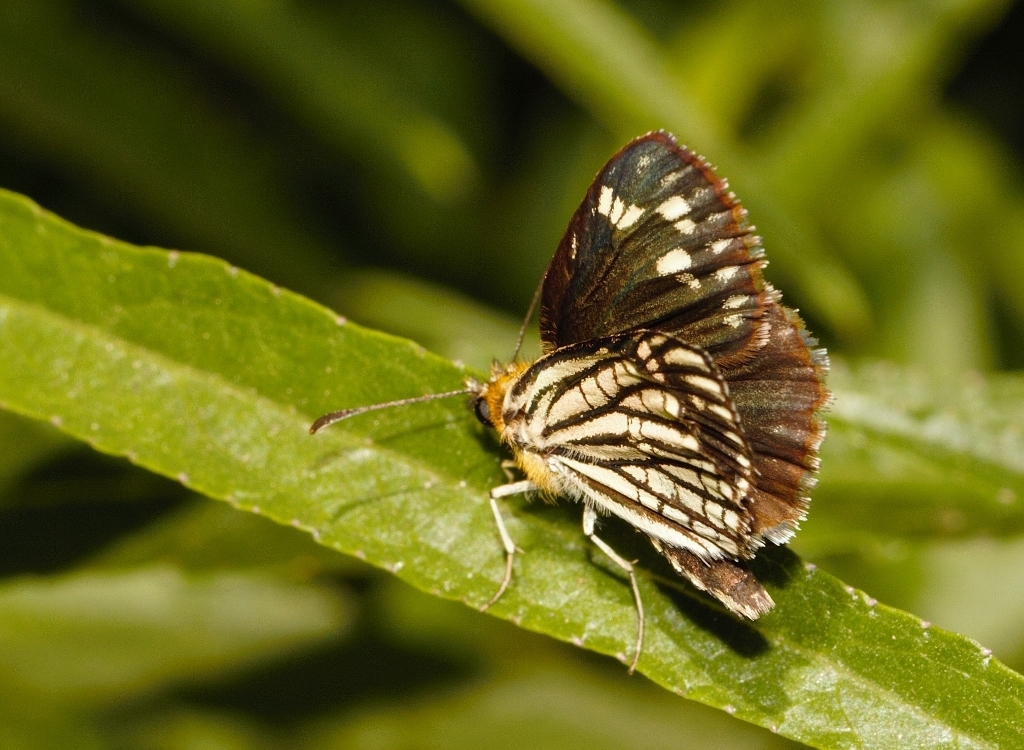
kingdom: Animalia
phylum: Arthropoda
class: Insecta
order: Lepidoptera
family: Hesperiidae
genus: Willema
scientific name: Willema willemi
